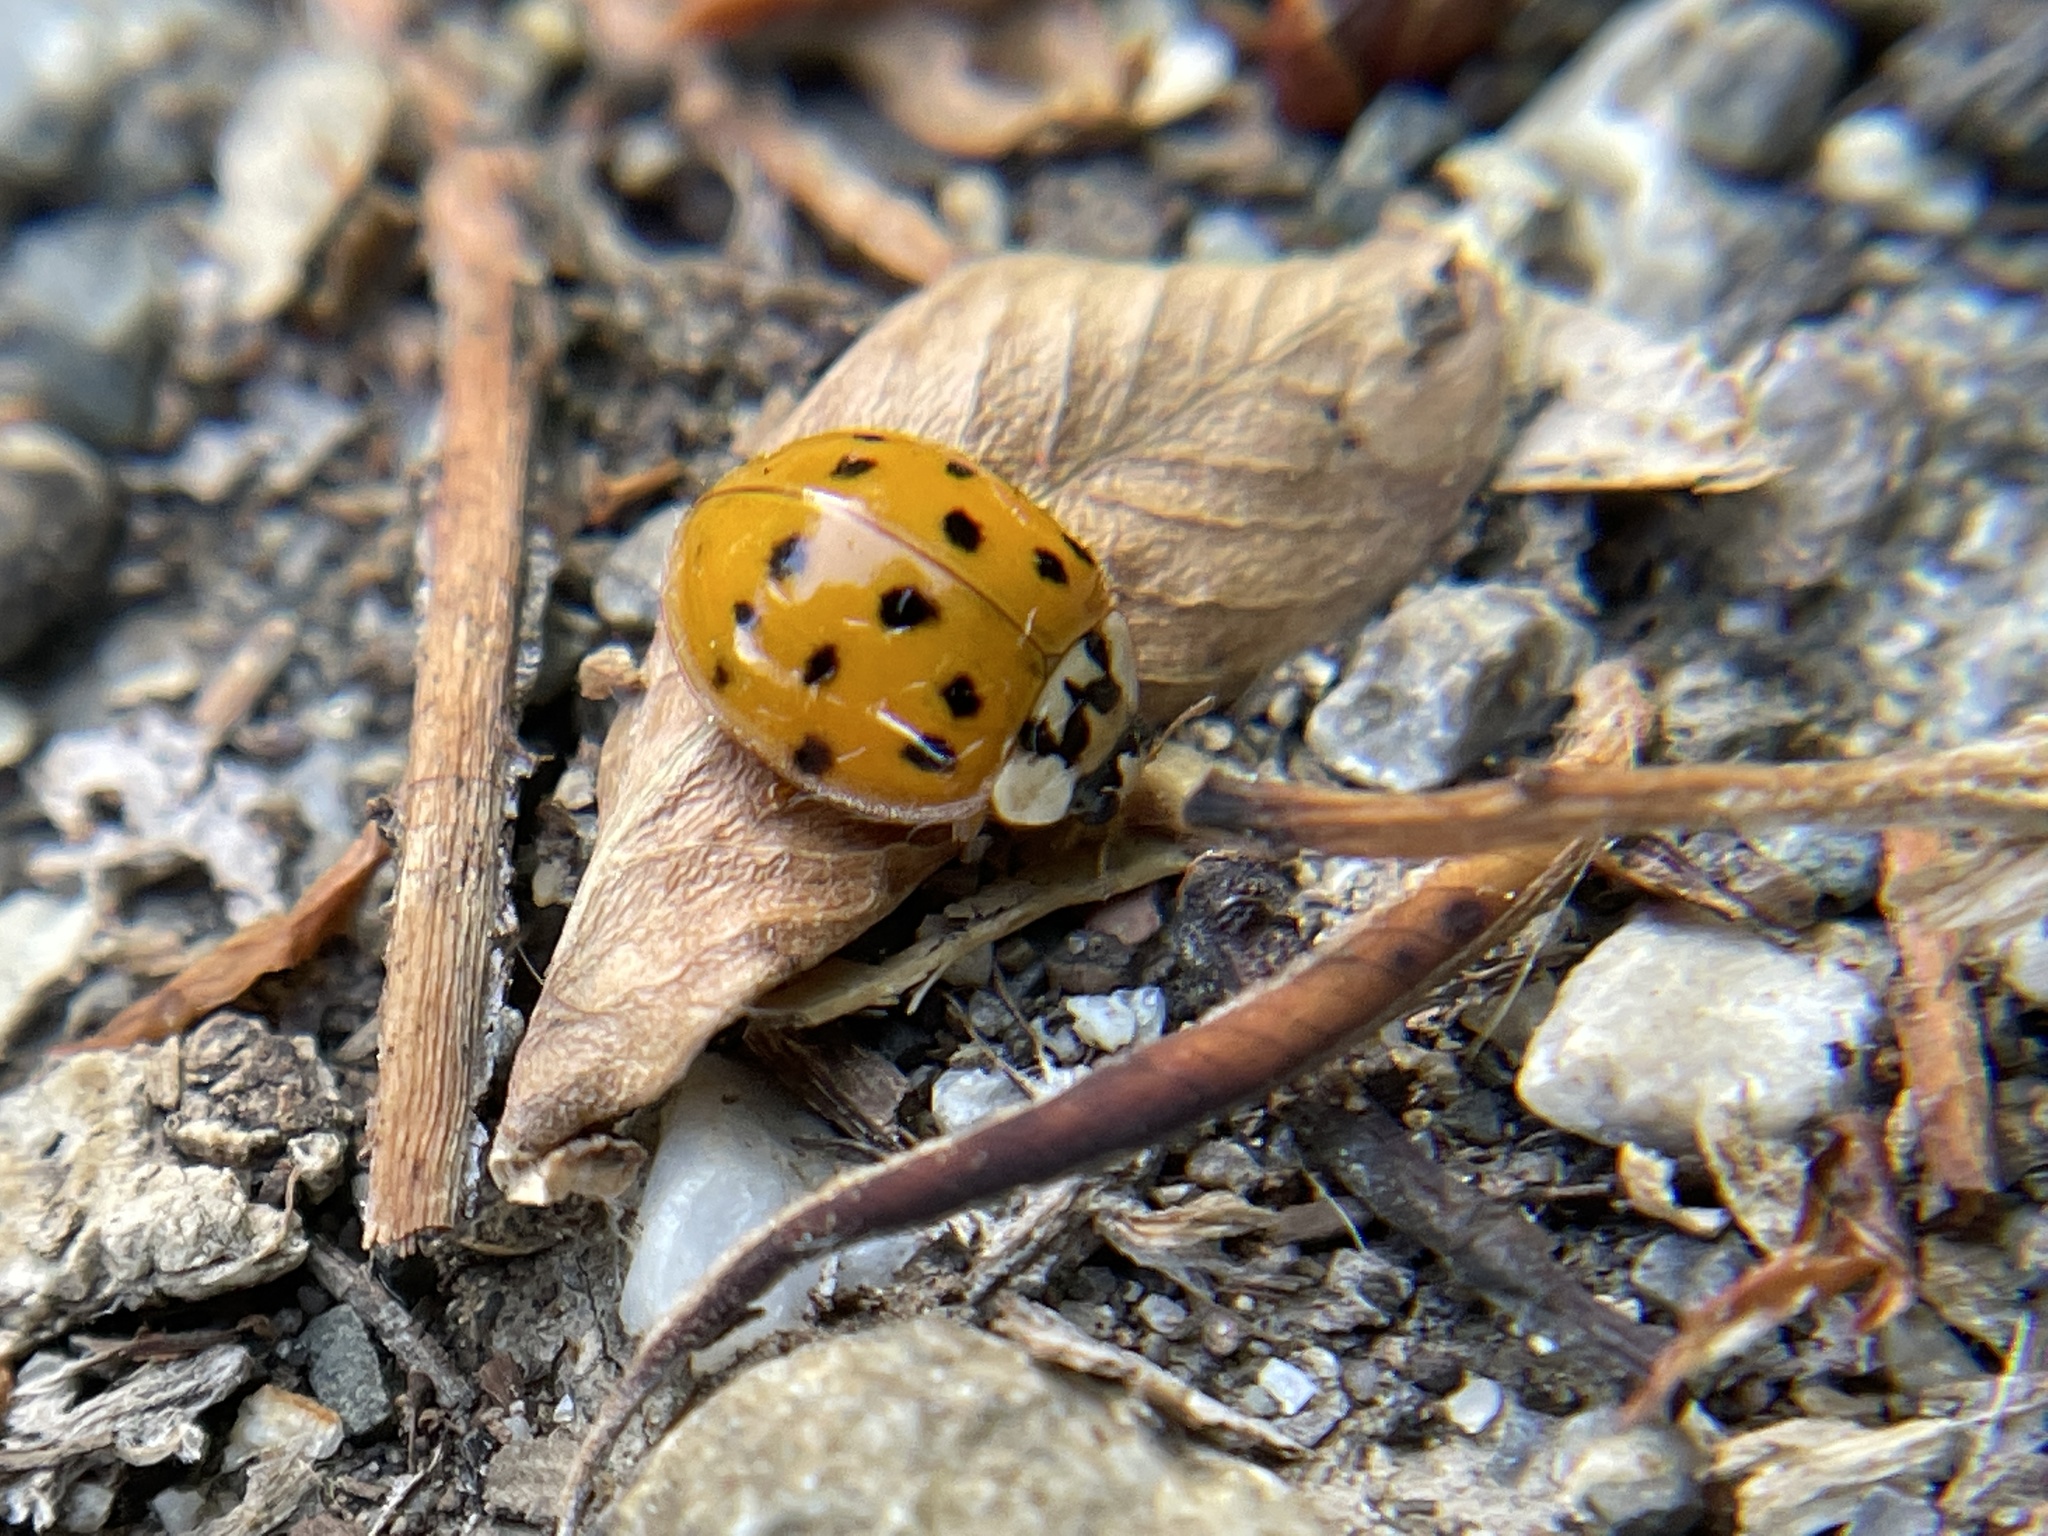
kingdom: Animalia
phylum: Arthropoda
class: Insecta
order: Coleoptera
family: Coccinellidae
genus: Harmonia
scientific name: Harmonia axyridis
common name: Harlequin ladybird
